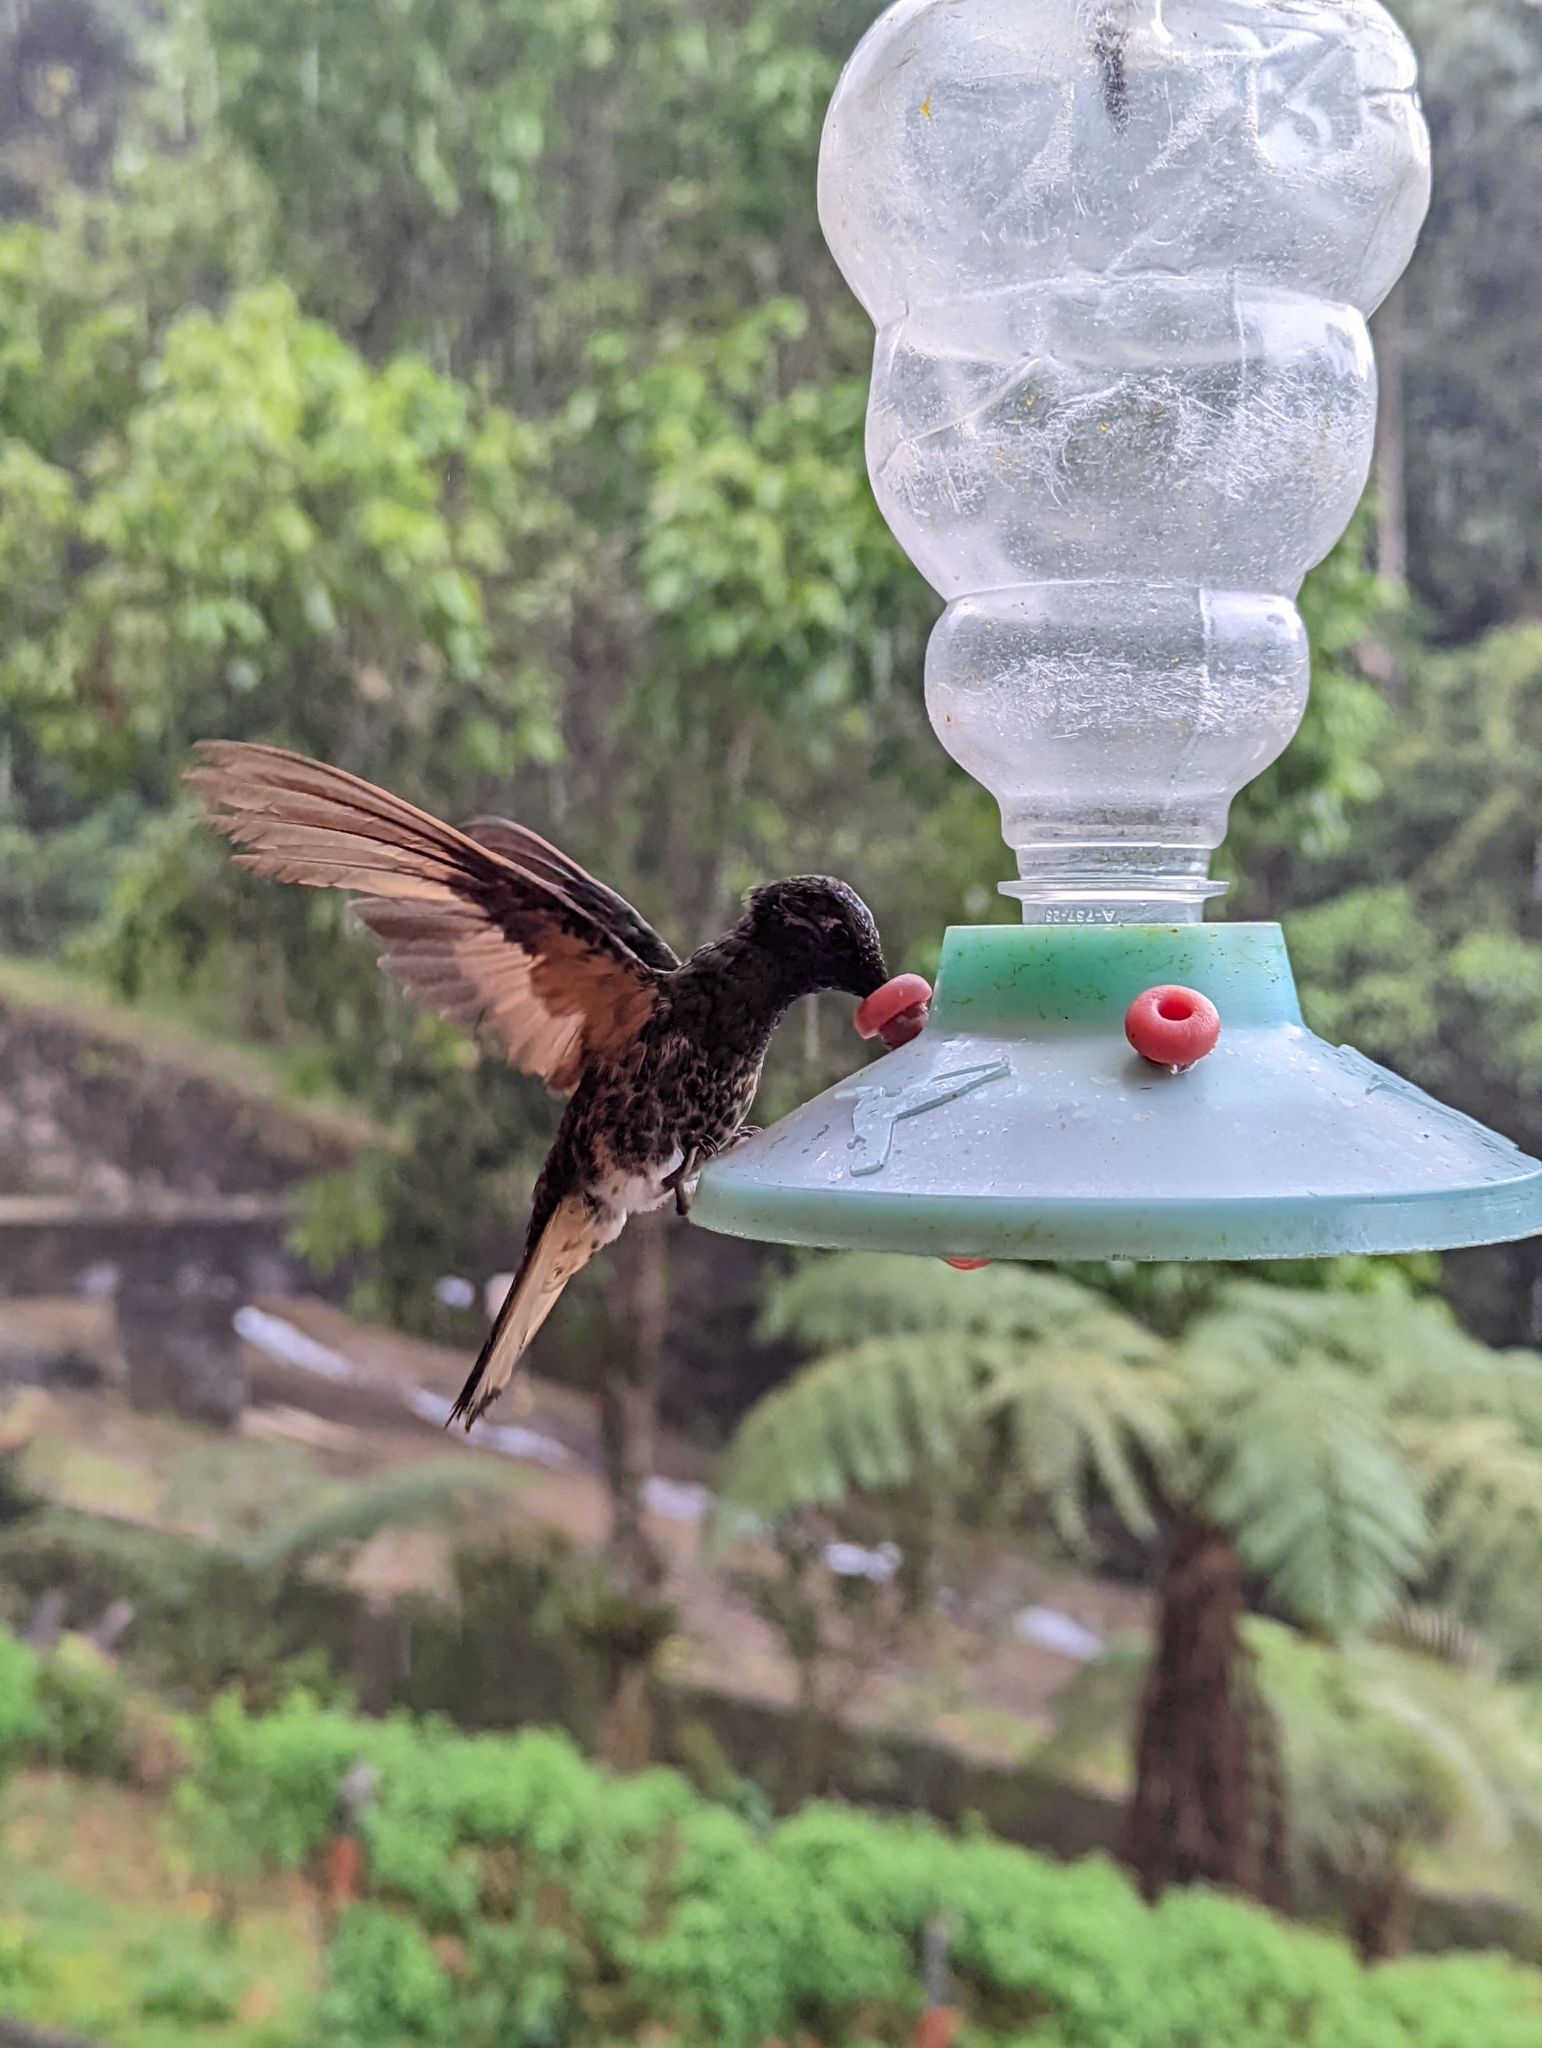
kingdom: Animalia
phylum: Chordata
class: Aves
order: Apodiformes
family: Trochilidae
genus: Boissonneaua
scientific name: Boissonneaua flavescens
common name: Buff-tailed coronet
